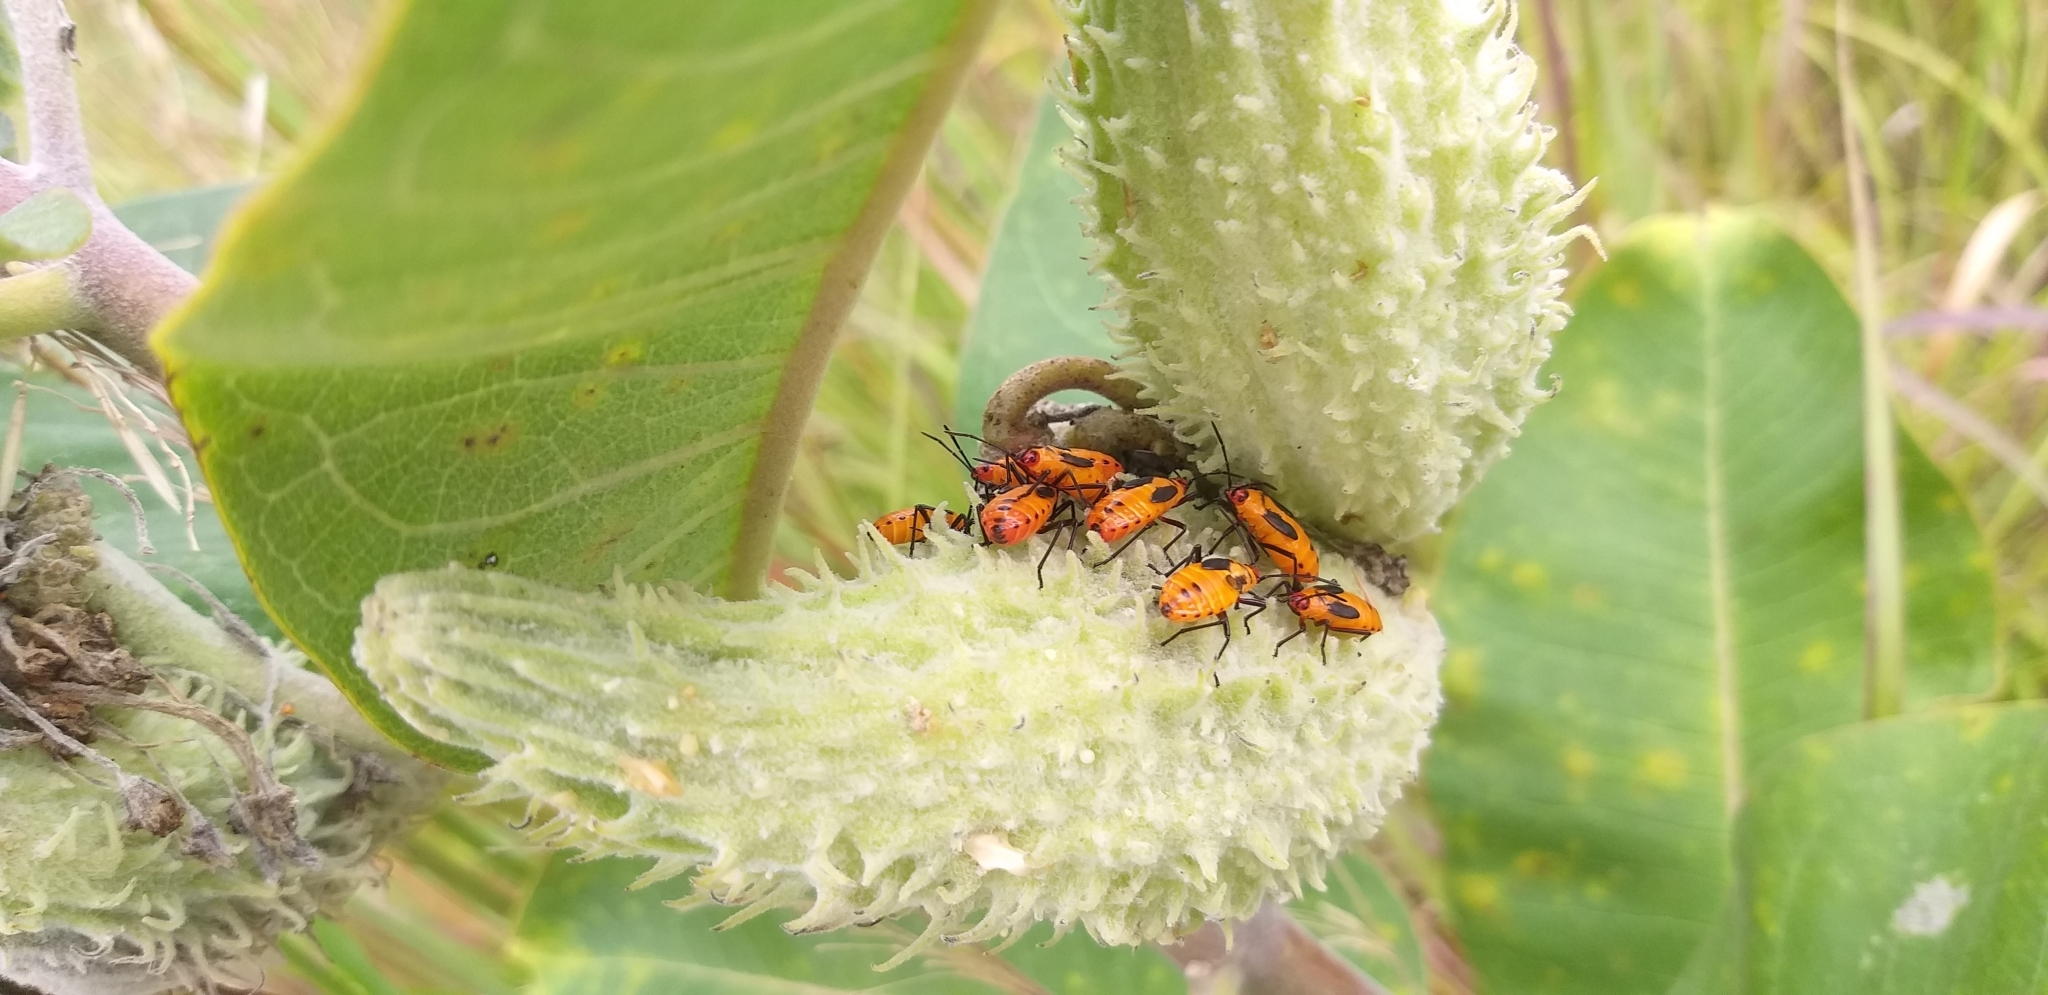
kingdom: Animalia
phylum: Arthropoda
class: Insecta
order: Hemiptera
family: Lygaeidae
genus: Oncopeltus
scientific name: Oncopeltus fasciatus
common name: Large milkweed bug
